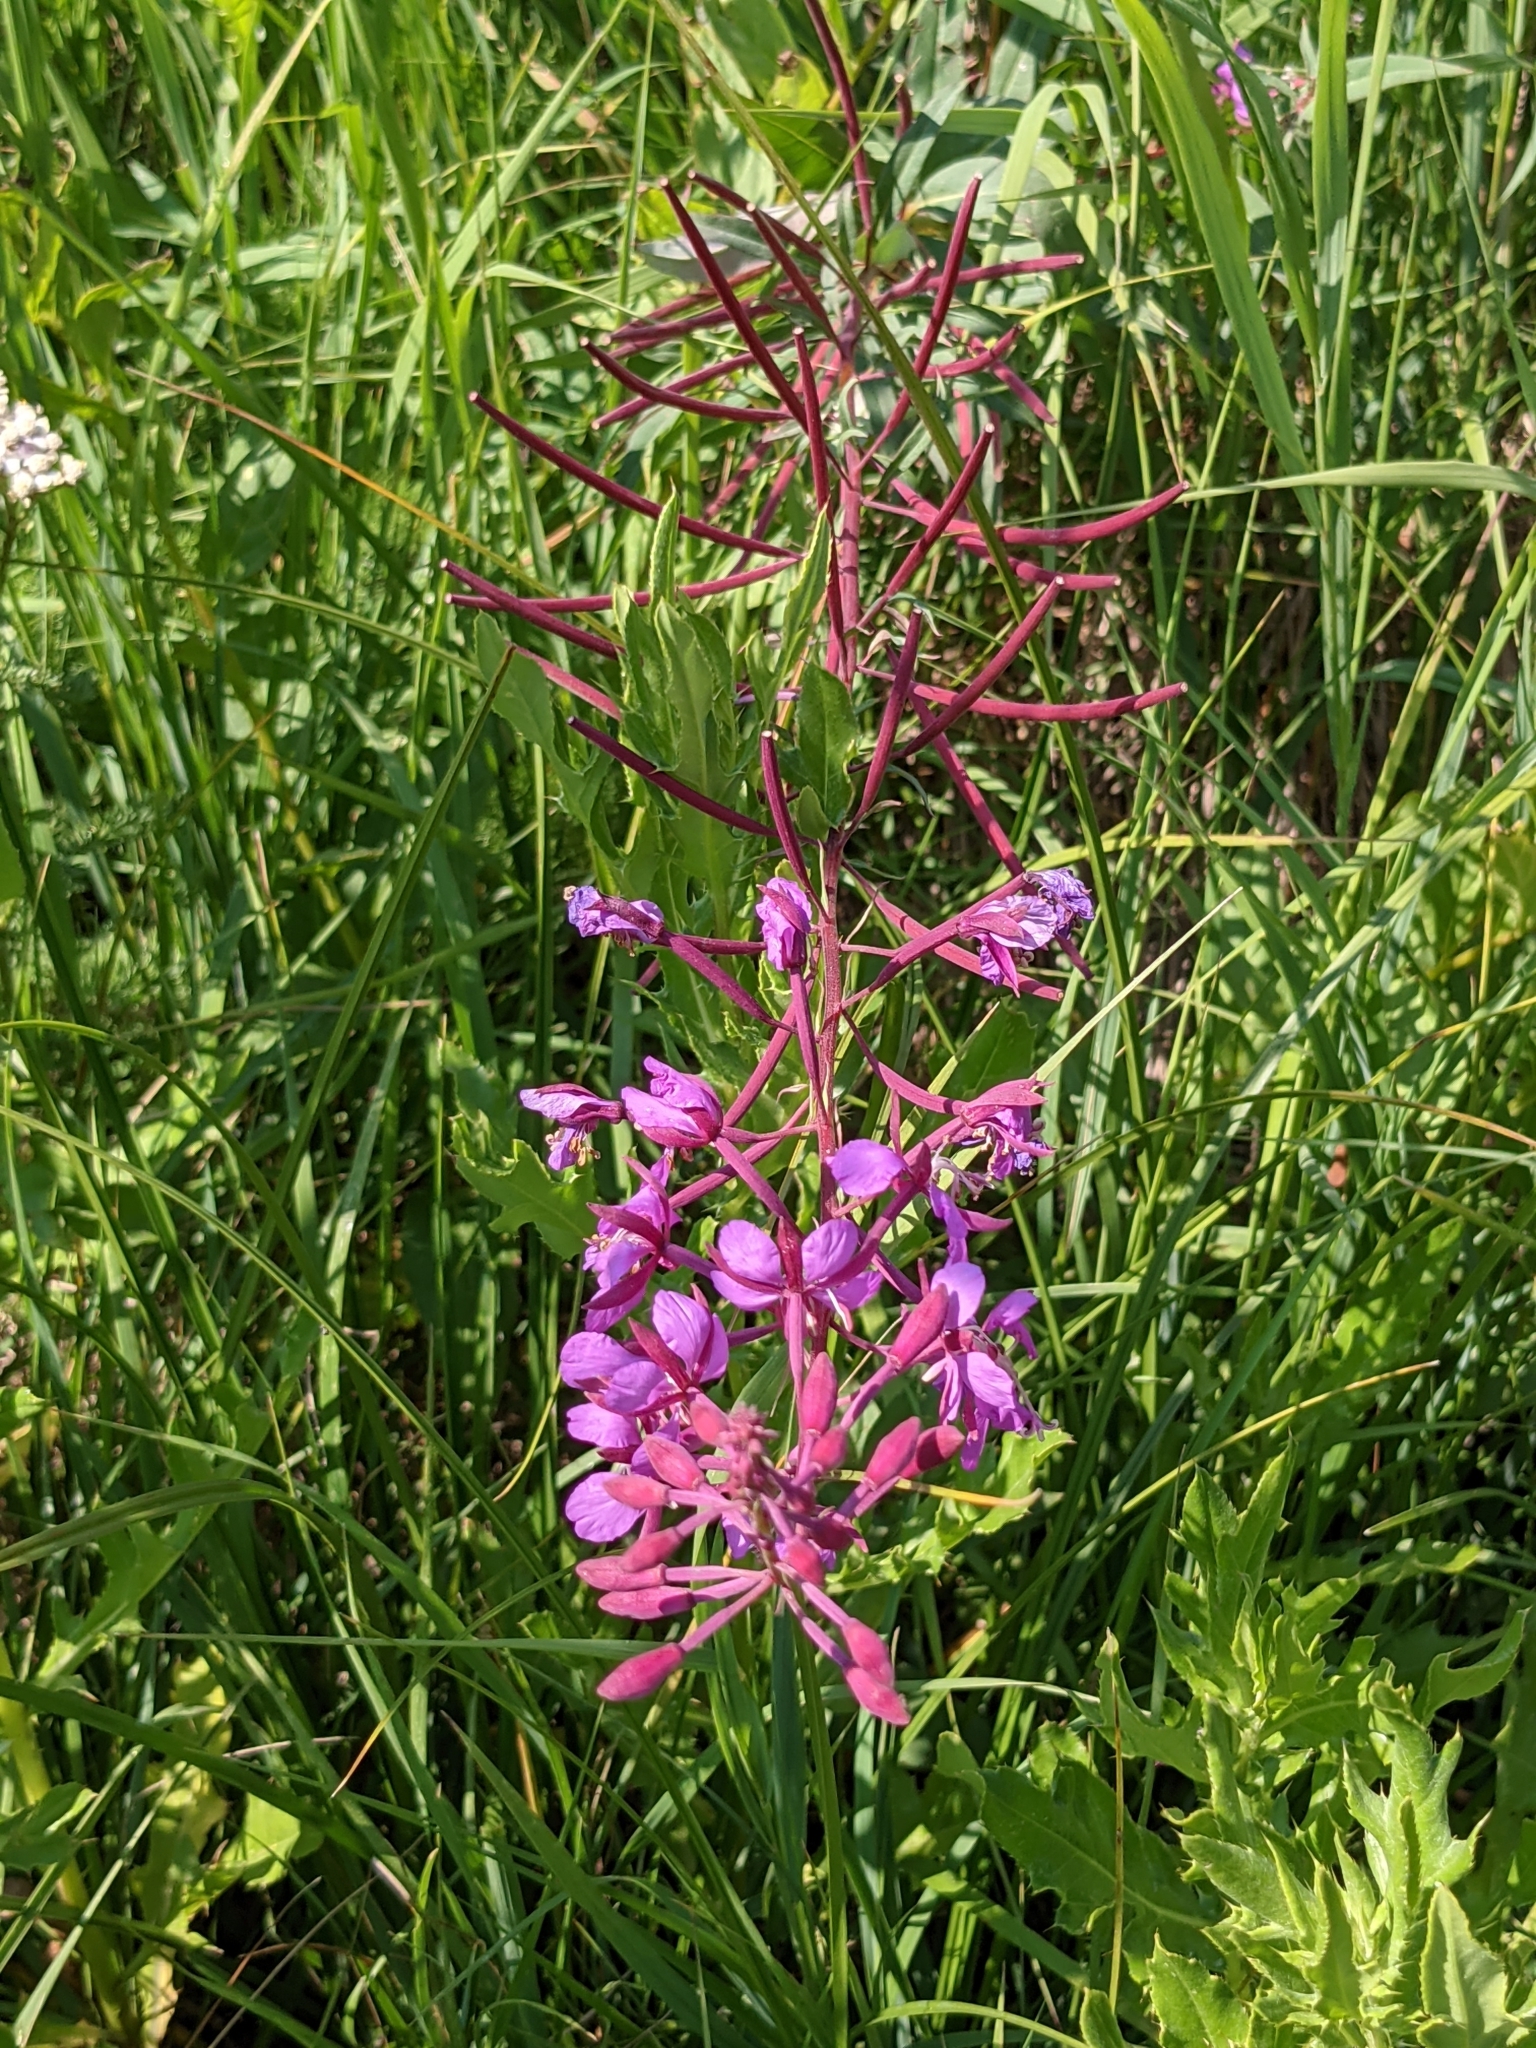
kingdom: Plantae
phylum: Tracheophyta
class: Magnoliopsida
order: Myrtales
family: Onagraceae
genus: Chamaenerion
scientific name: Chamaenerion angustifolium
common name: Fireweed
